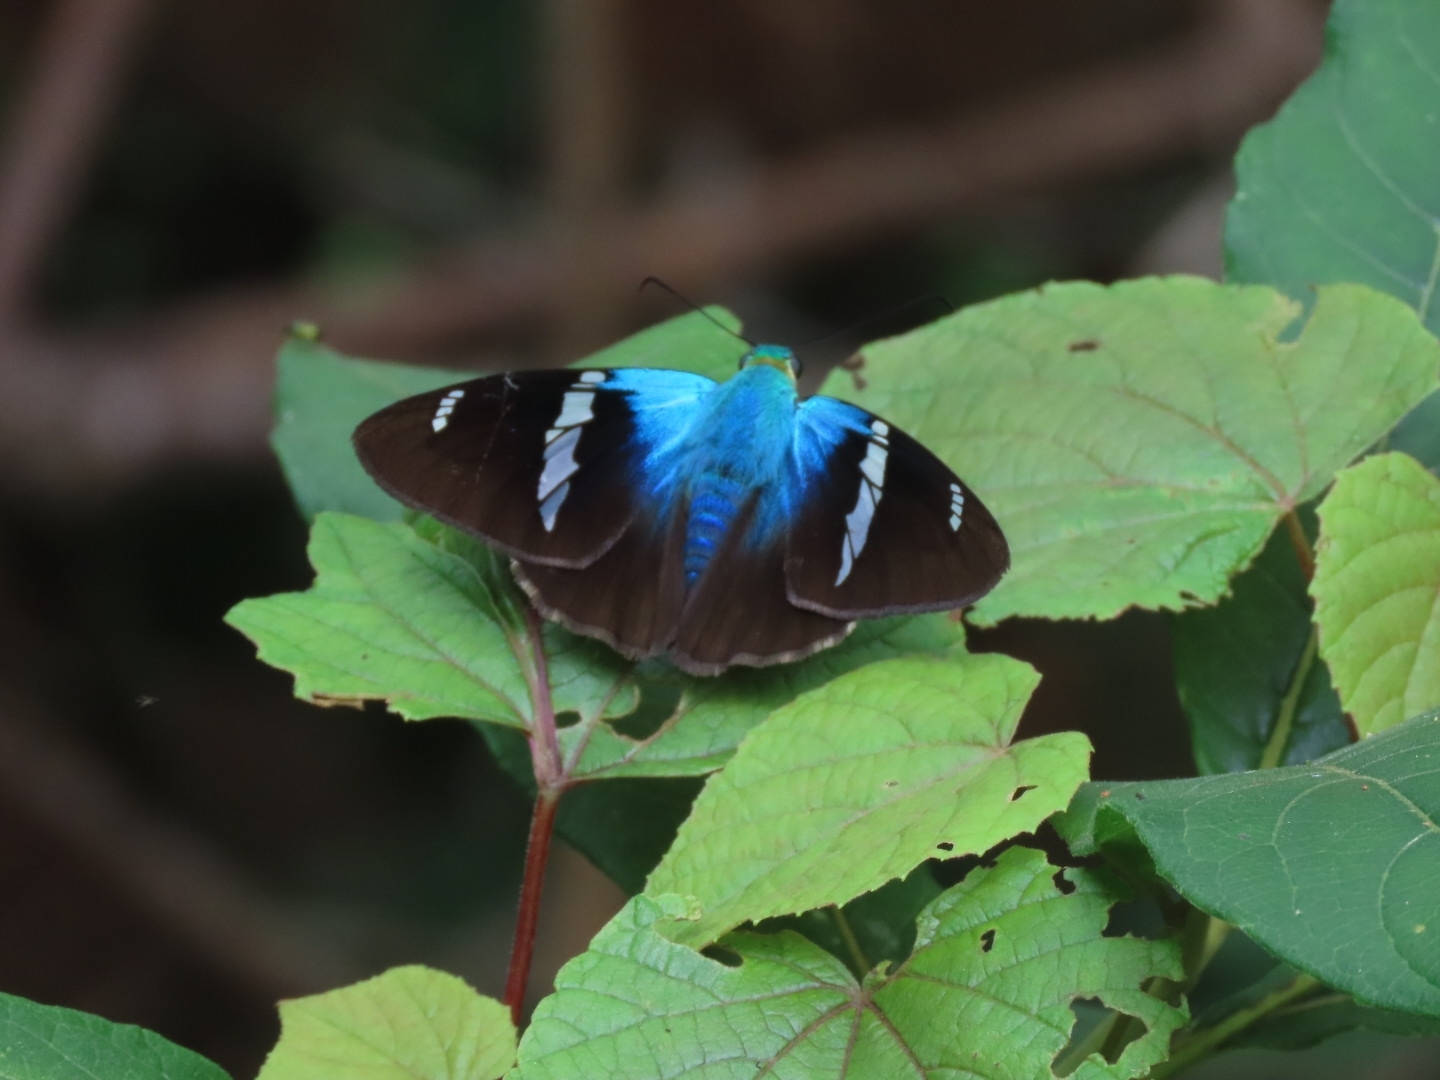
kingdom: Animalia
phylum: Arthropoda
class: Insecta
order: Lepidoptera
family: Hesperiidae
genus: Astraptes
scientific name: Astraptes fulgerator
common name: Two-barred flasher
